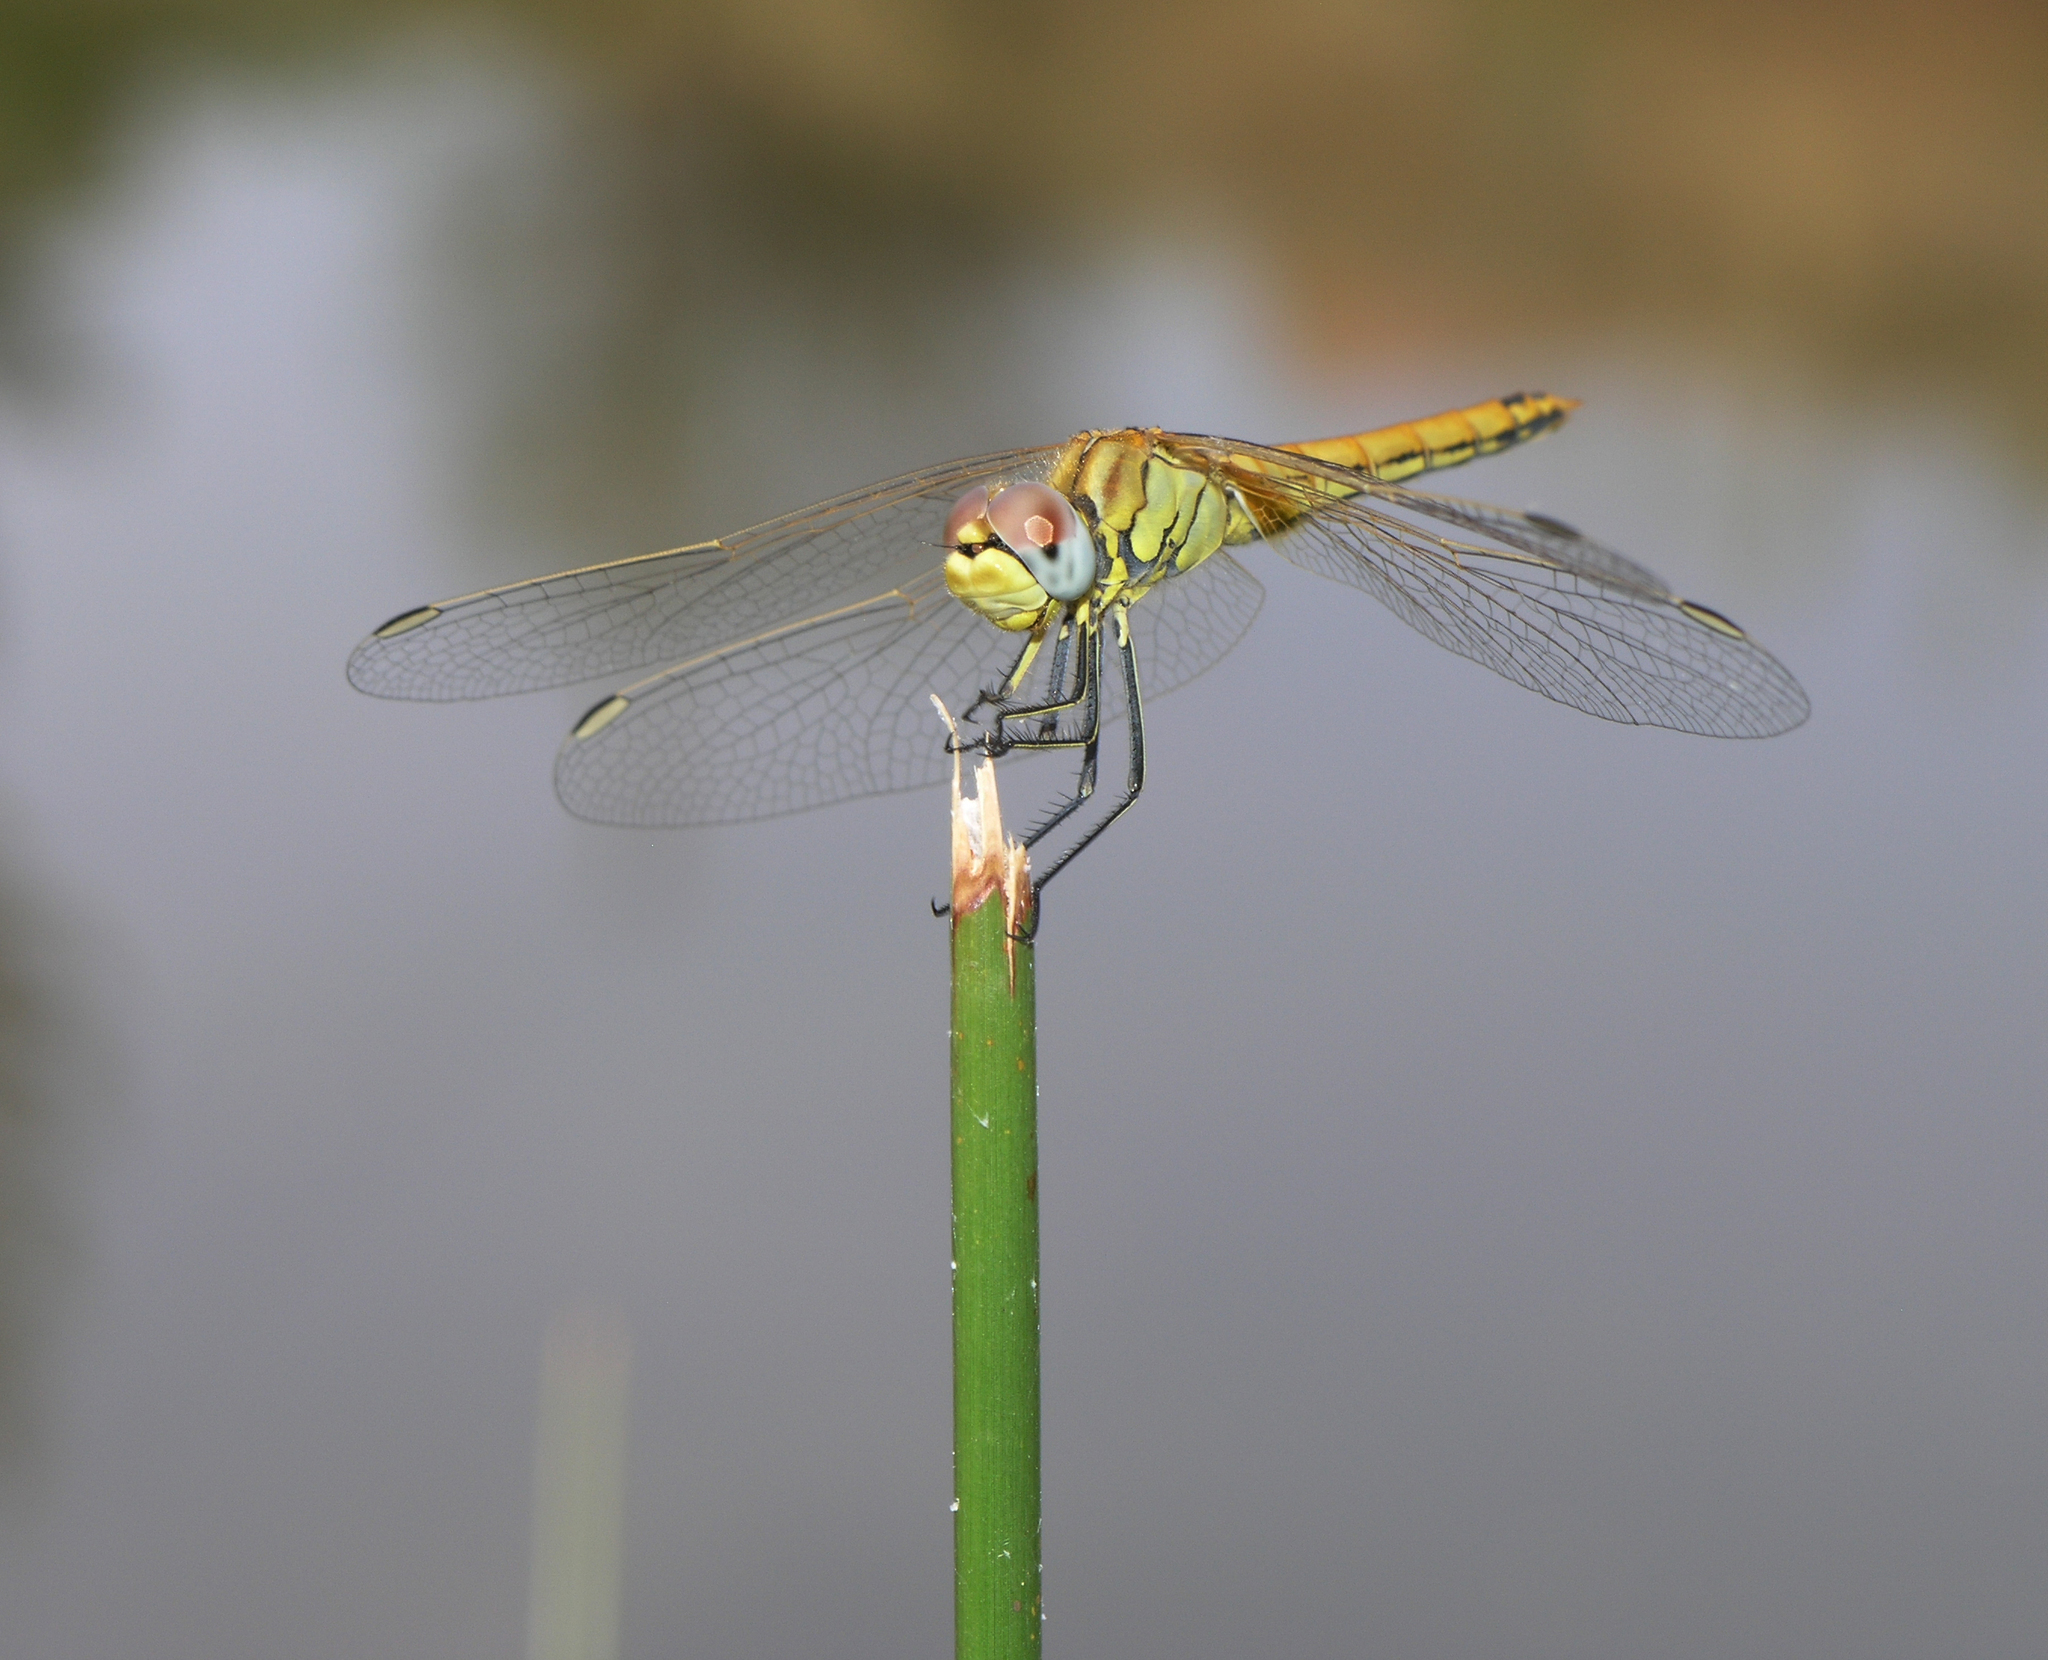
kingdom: Animalia
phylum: Arthropoda
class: Insecta
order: Odonata
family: Libellulidae
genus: Sympetrum
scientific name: Sympetrum fonscolombii
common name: Red-veined darter
